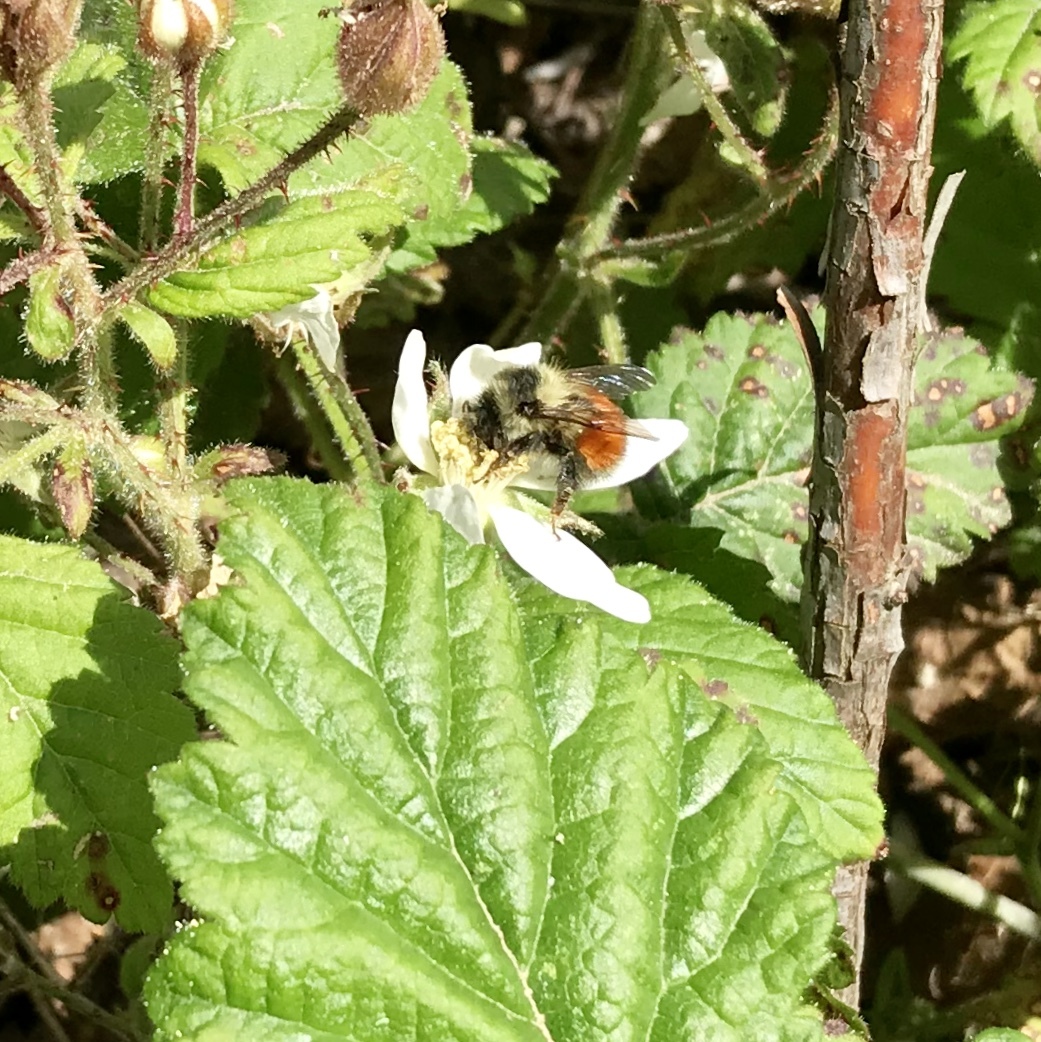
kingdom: Animalia
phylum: Arthropoda
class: Insecta
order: Hymenoptera
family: Apidae
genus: Bombus
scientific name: Bombus melanopygus
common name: Black tail bumble bee
